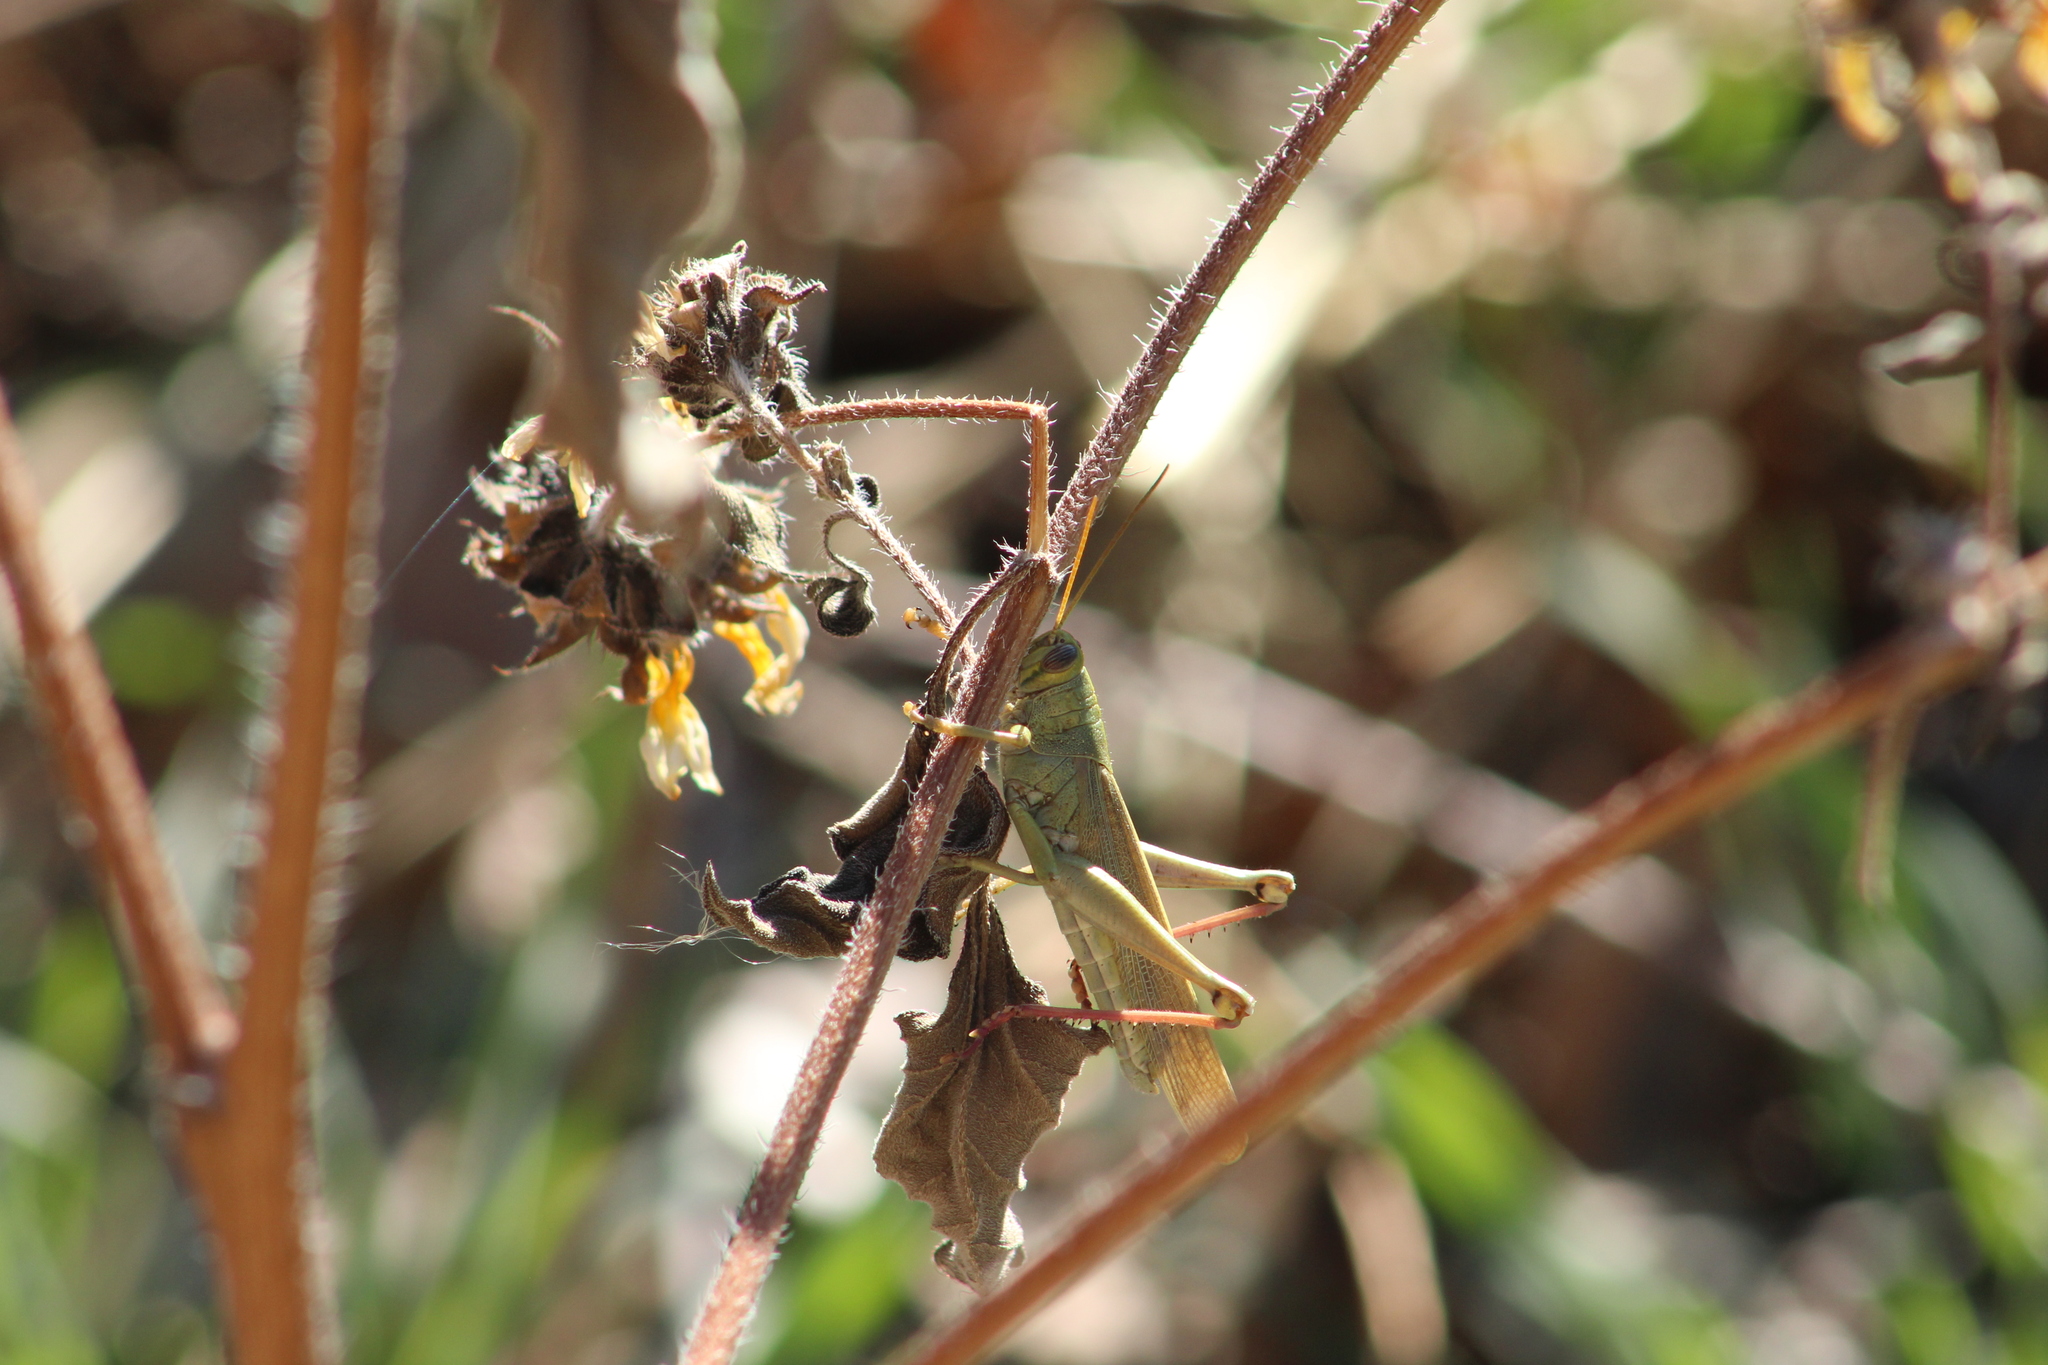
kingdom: Animalia
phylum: Arthropoda
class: Insecta
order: Orthoptera
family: Acrididae
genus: Schistocerca
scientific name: Schistocerca lineata
